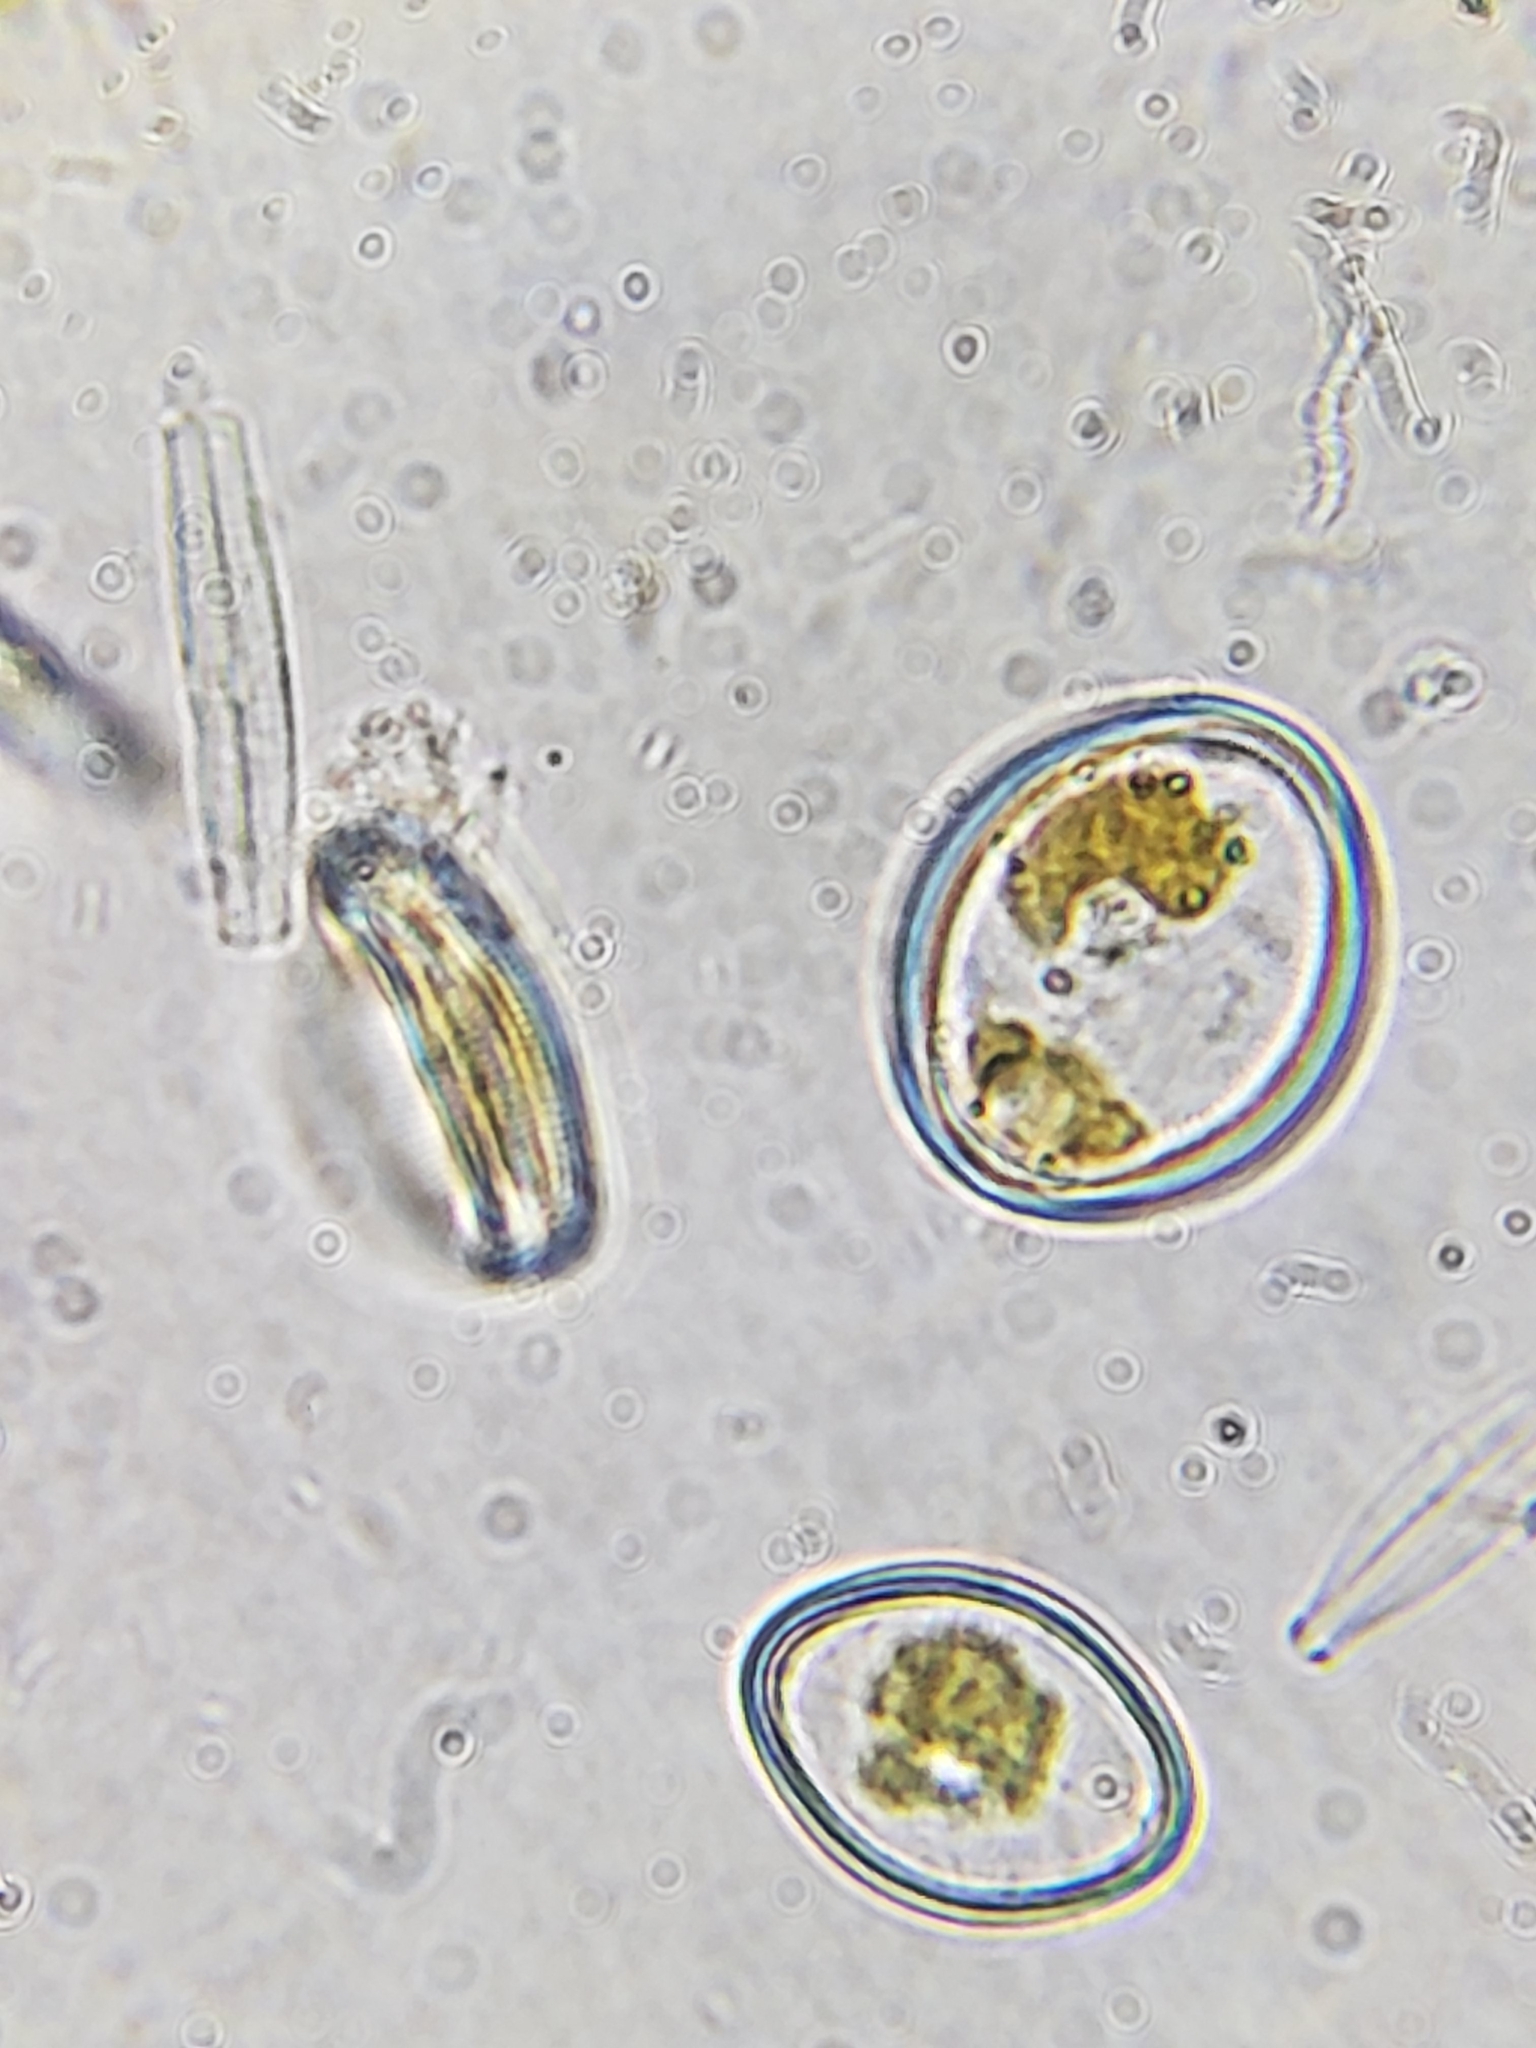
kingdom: Chromista
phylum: Ochrophyta
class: Bacillariophyceae
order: Achnanthales
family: Cocconeidaceae
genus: Cocconeis
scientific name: Cocconeis pediculus
